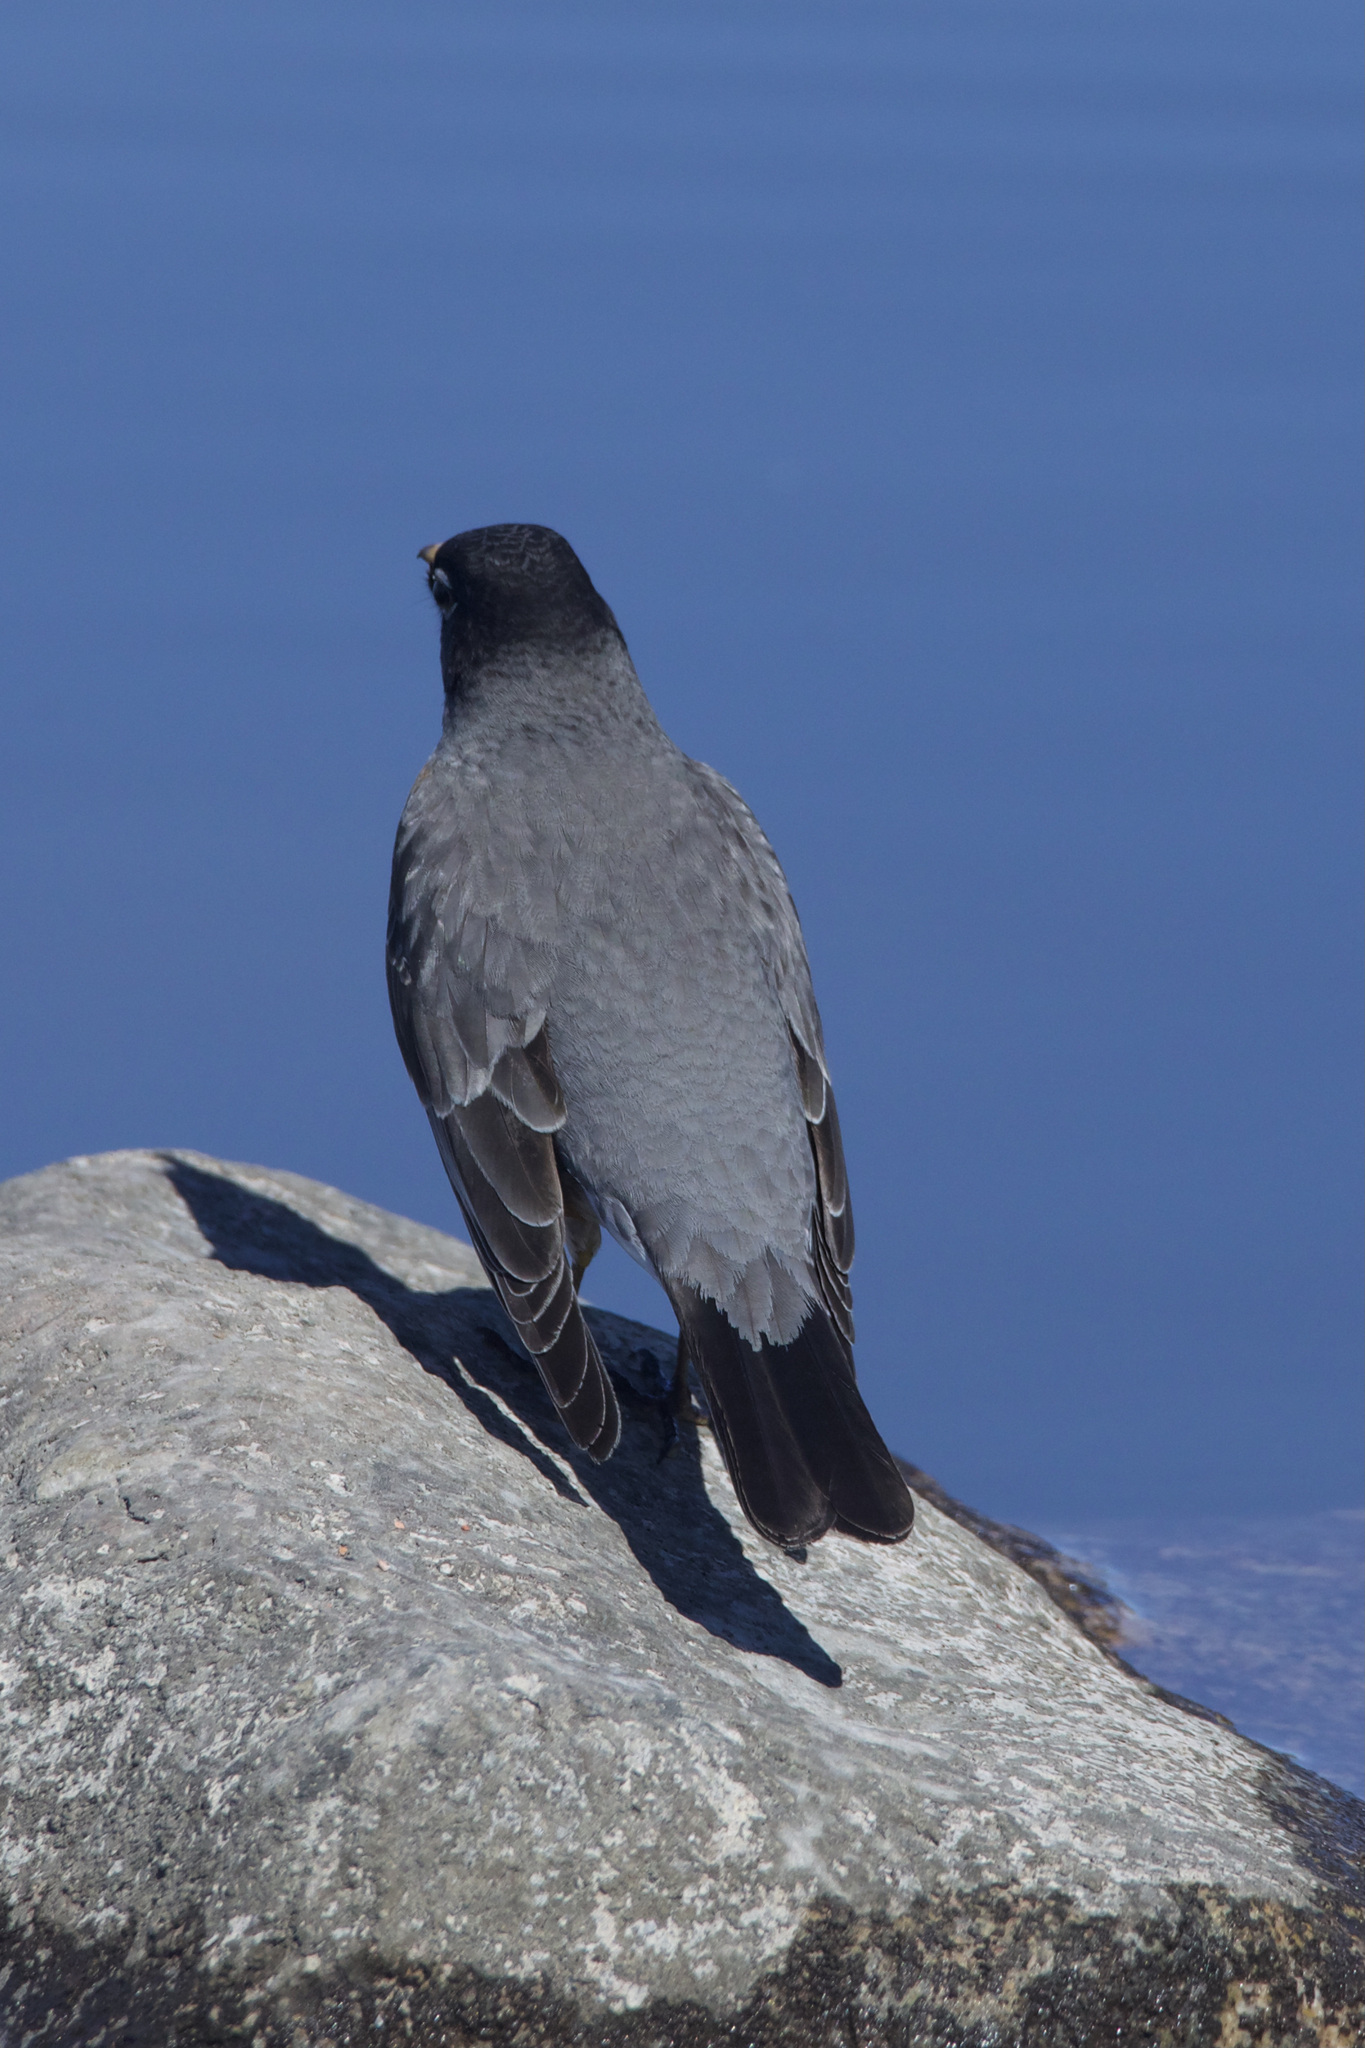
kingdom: Animalia
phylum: Chordata
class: Aves
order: Passeriformes
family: Turdidae
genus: Turdus
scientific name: Turdus migratorius
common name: American robin
